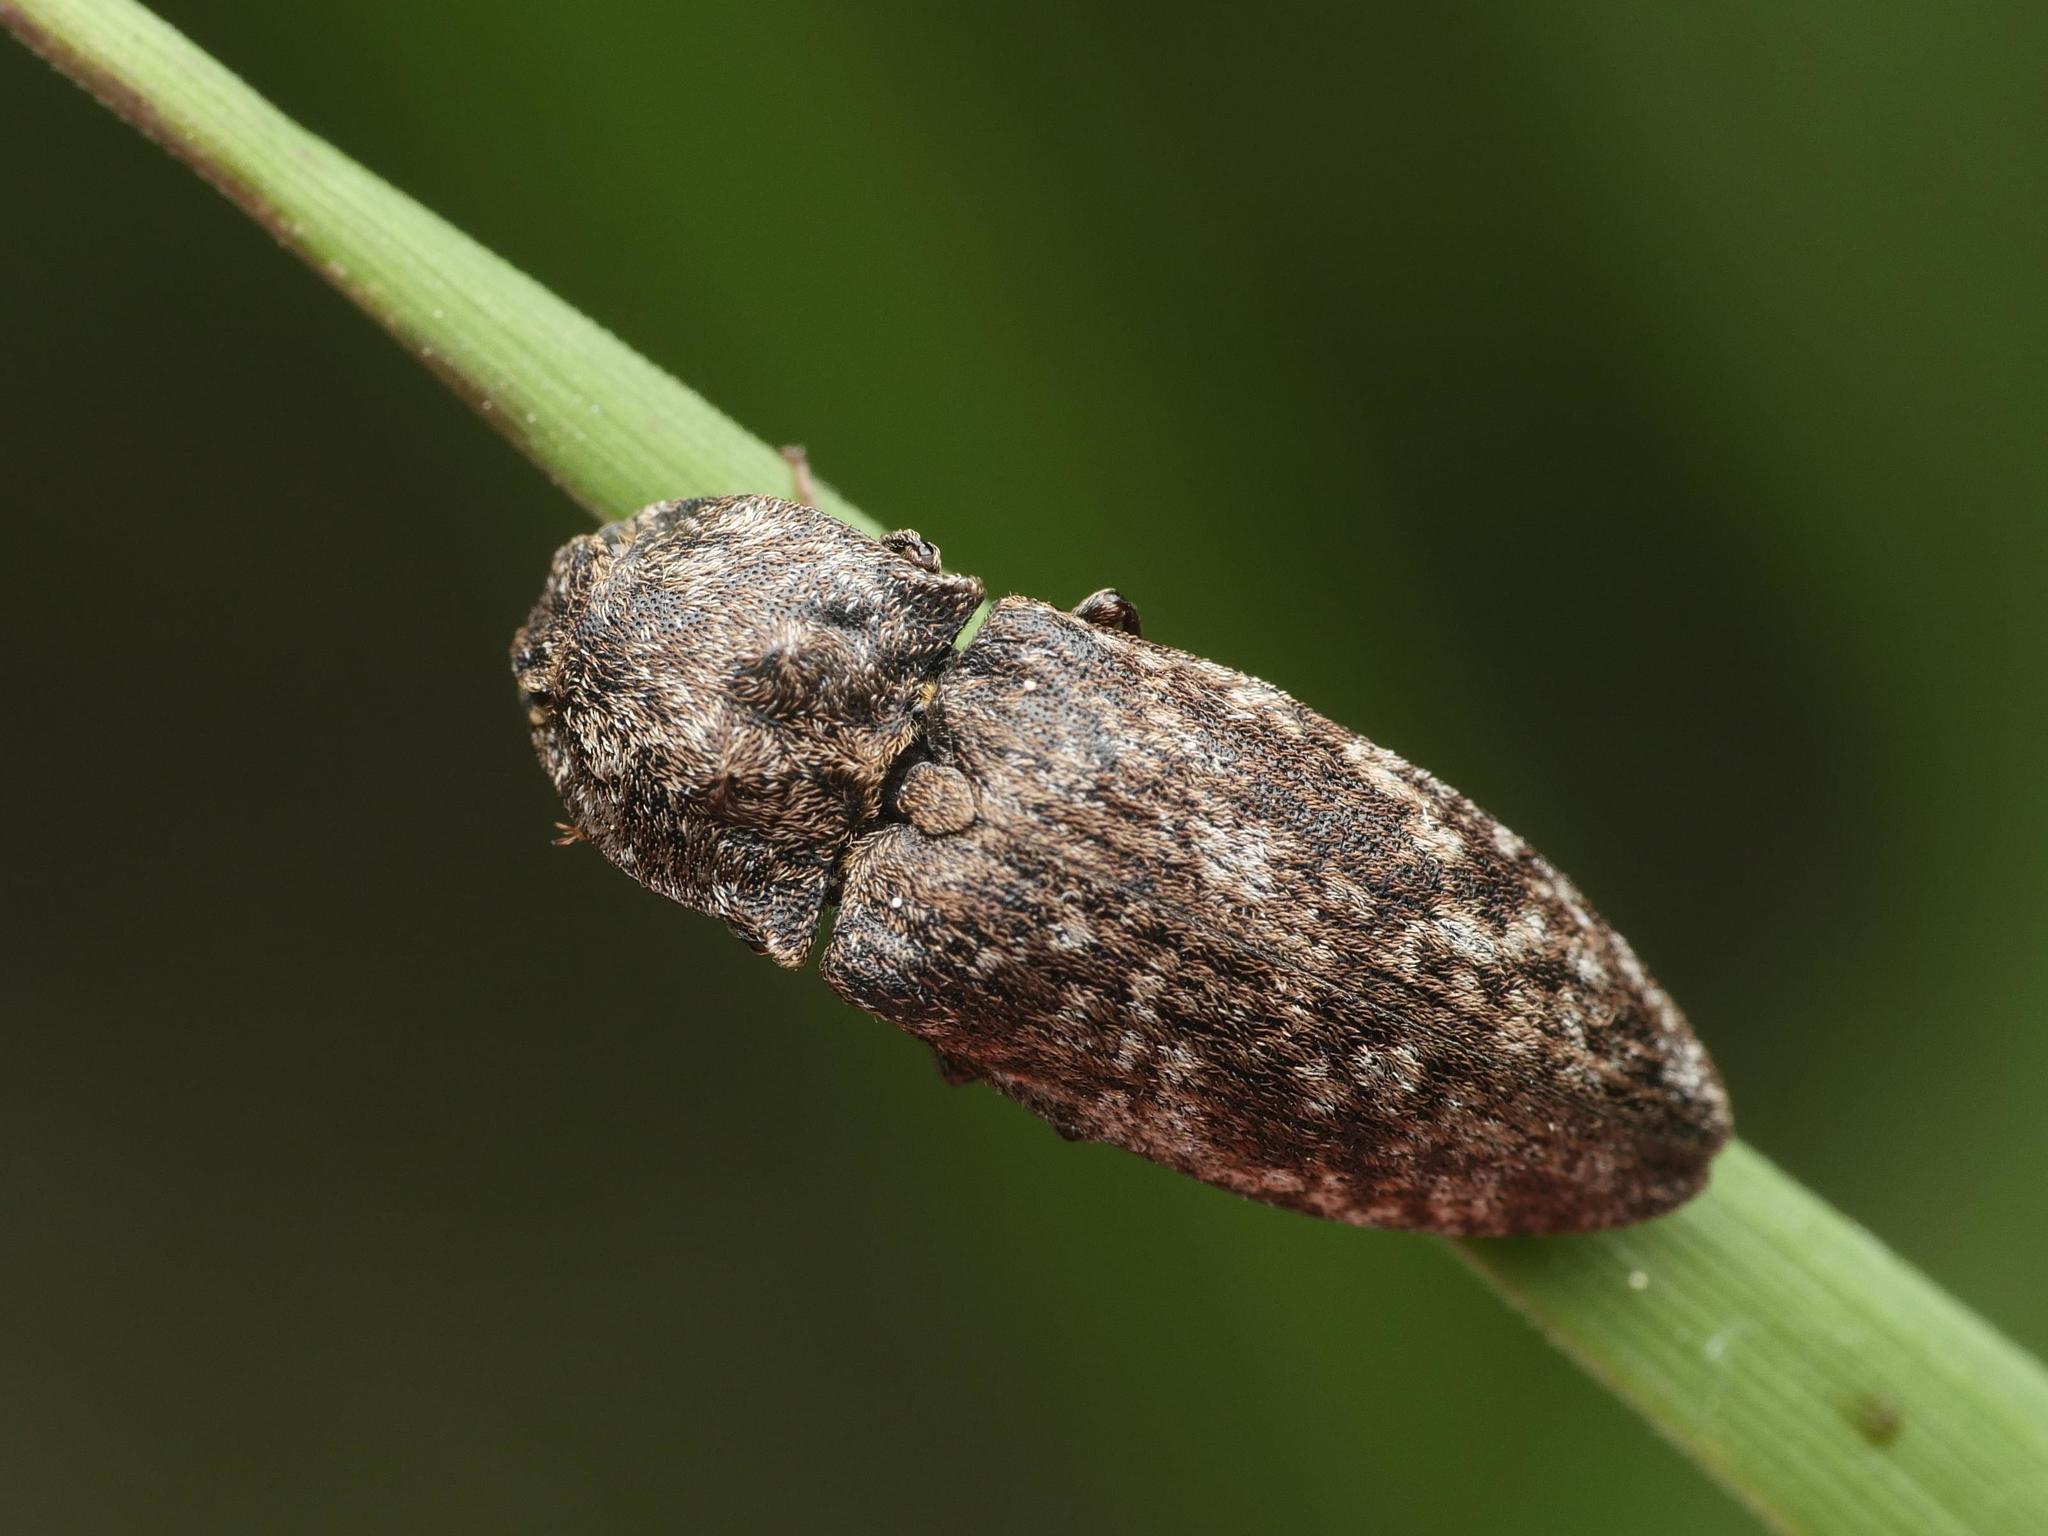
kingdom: Animalia
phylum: Arthropoda
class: Insecta
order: Coleoptera
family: Elateridae
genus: Agrypnus
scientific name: Agrypnus murinus
